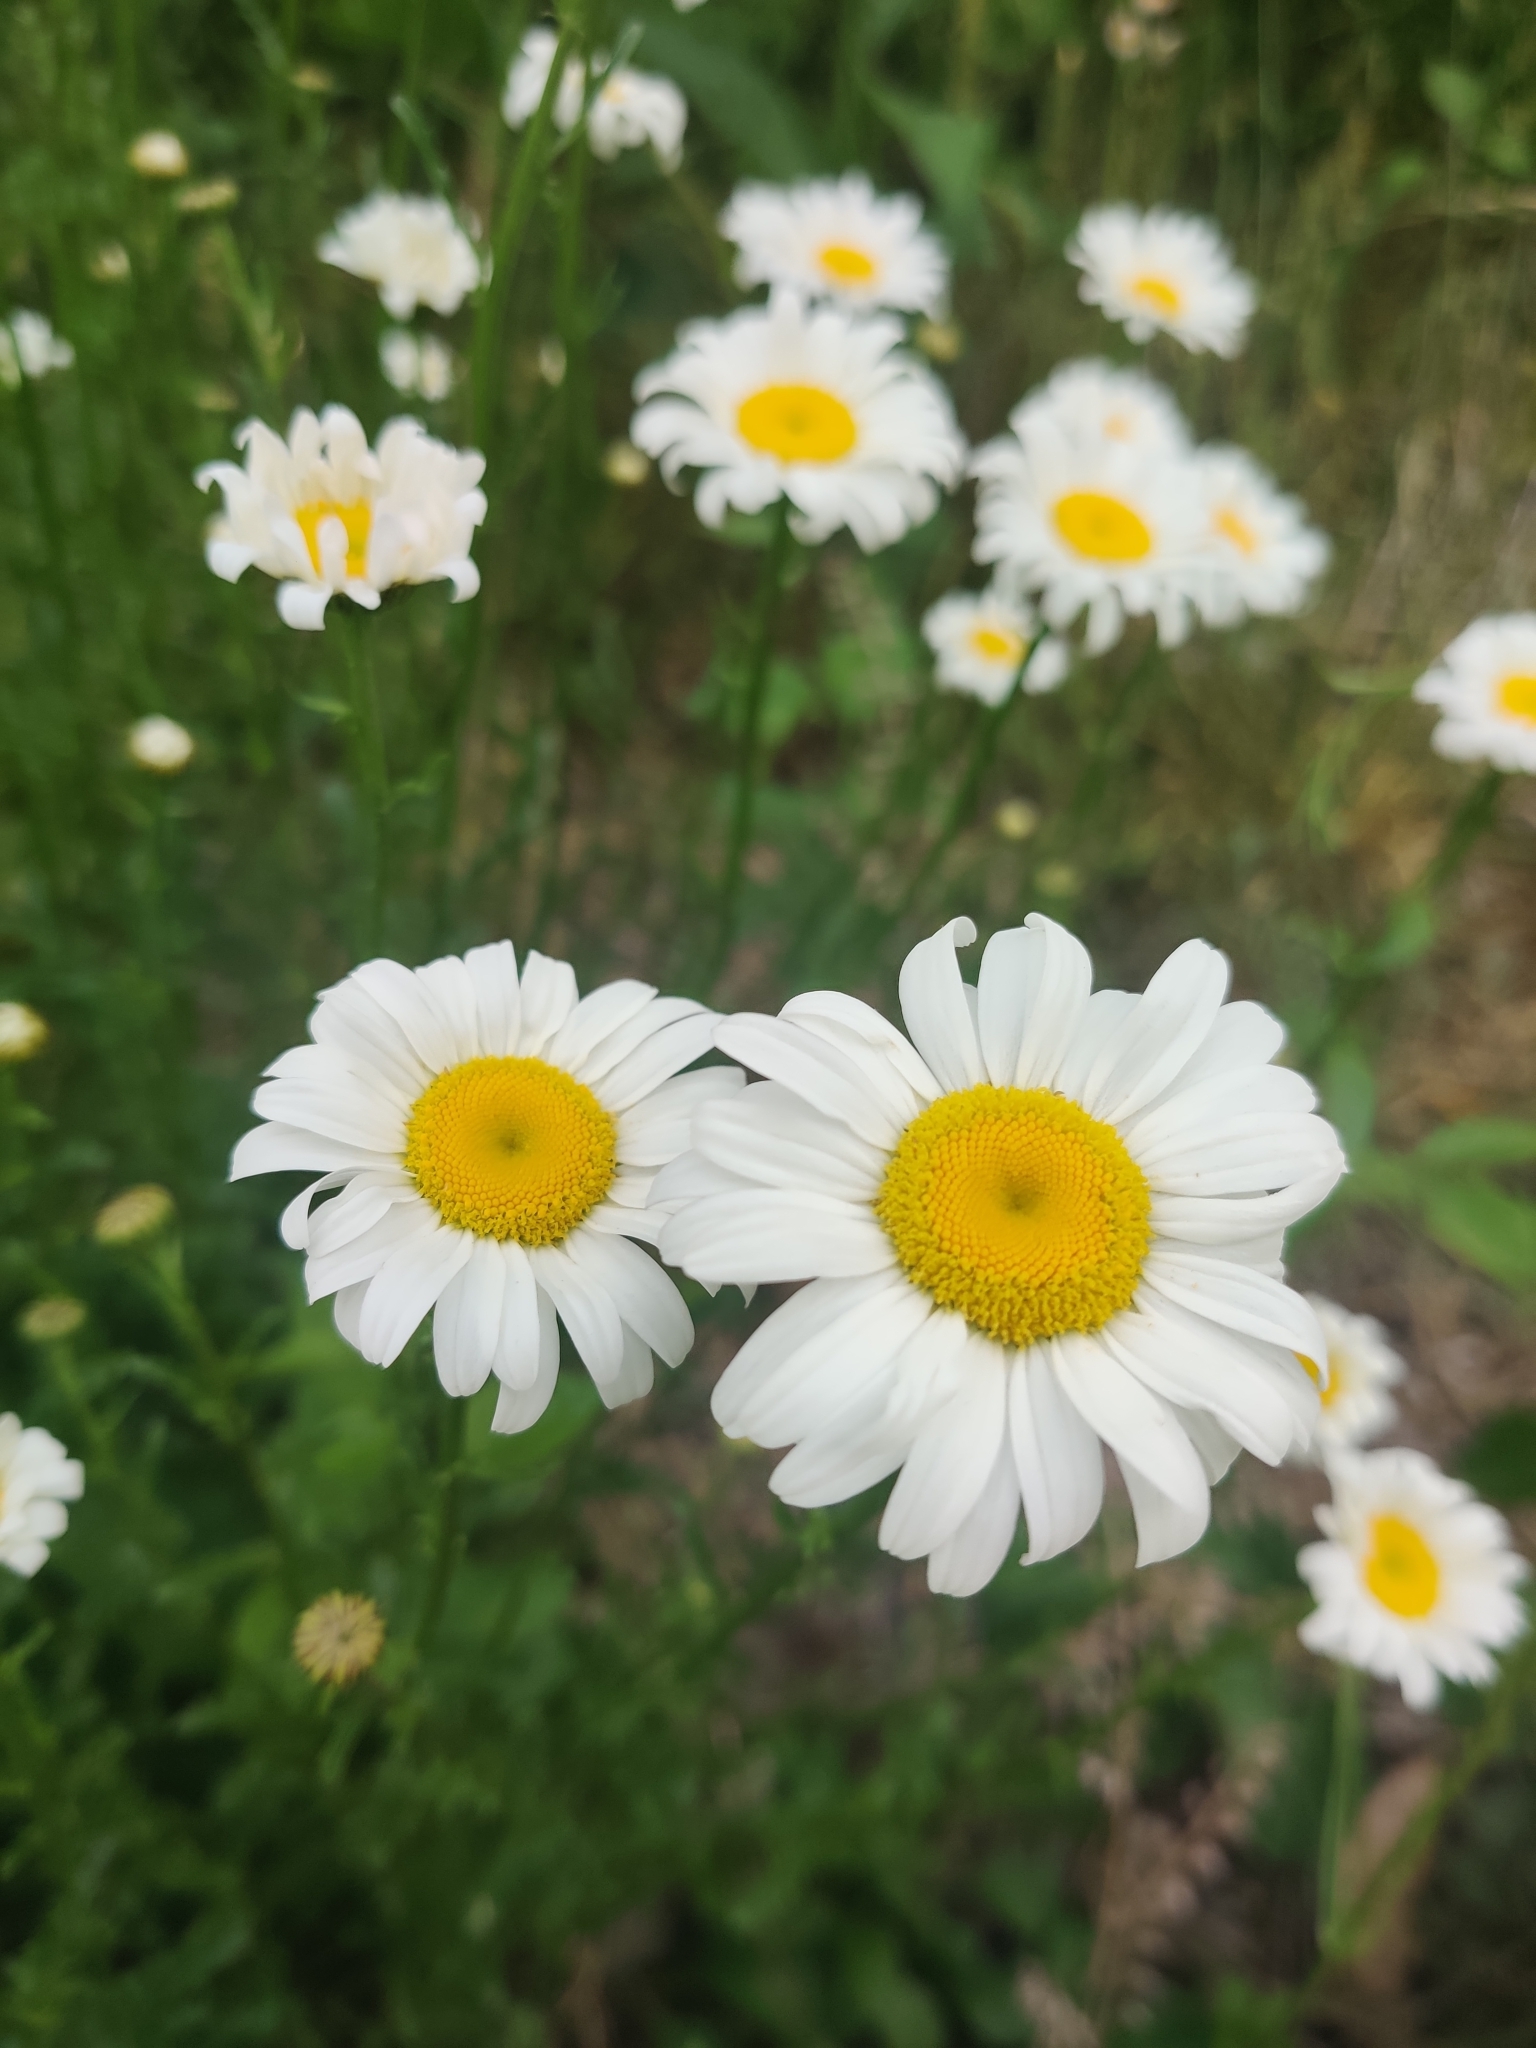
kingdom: Plantae
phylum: Tracheophyta
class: Magnoliopsida
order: Asterales
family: Asteraceae
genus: Leucanthemum
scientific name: Leucanthemum vulgare
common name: Oxeye daisy
